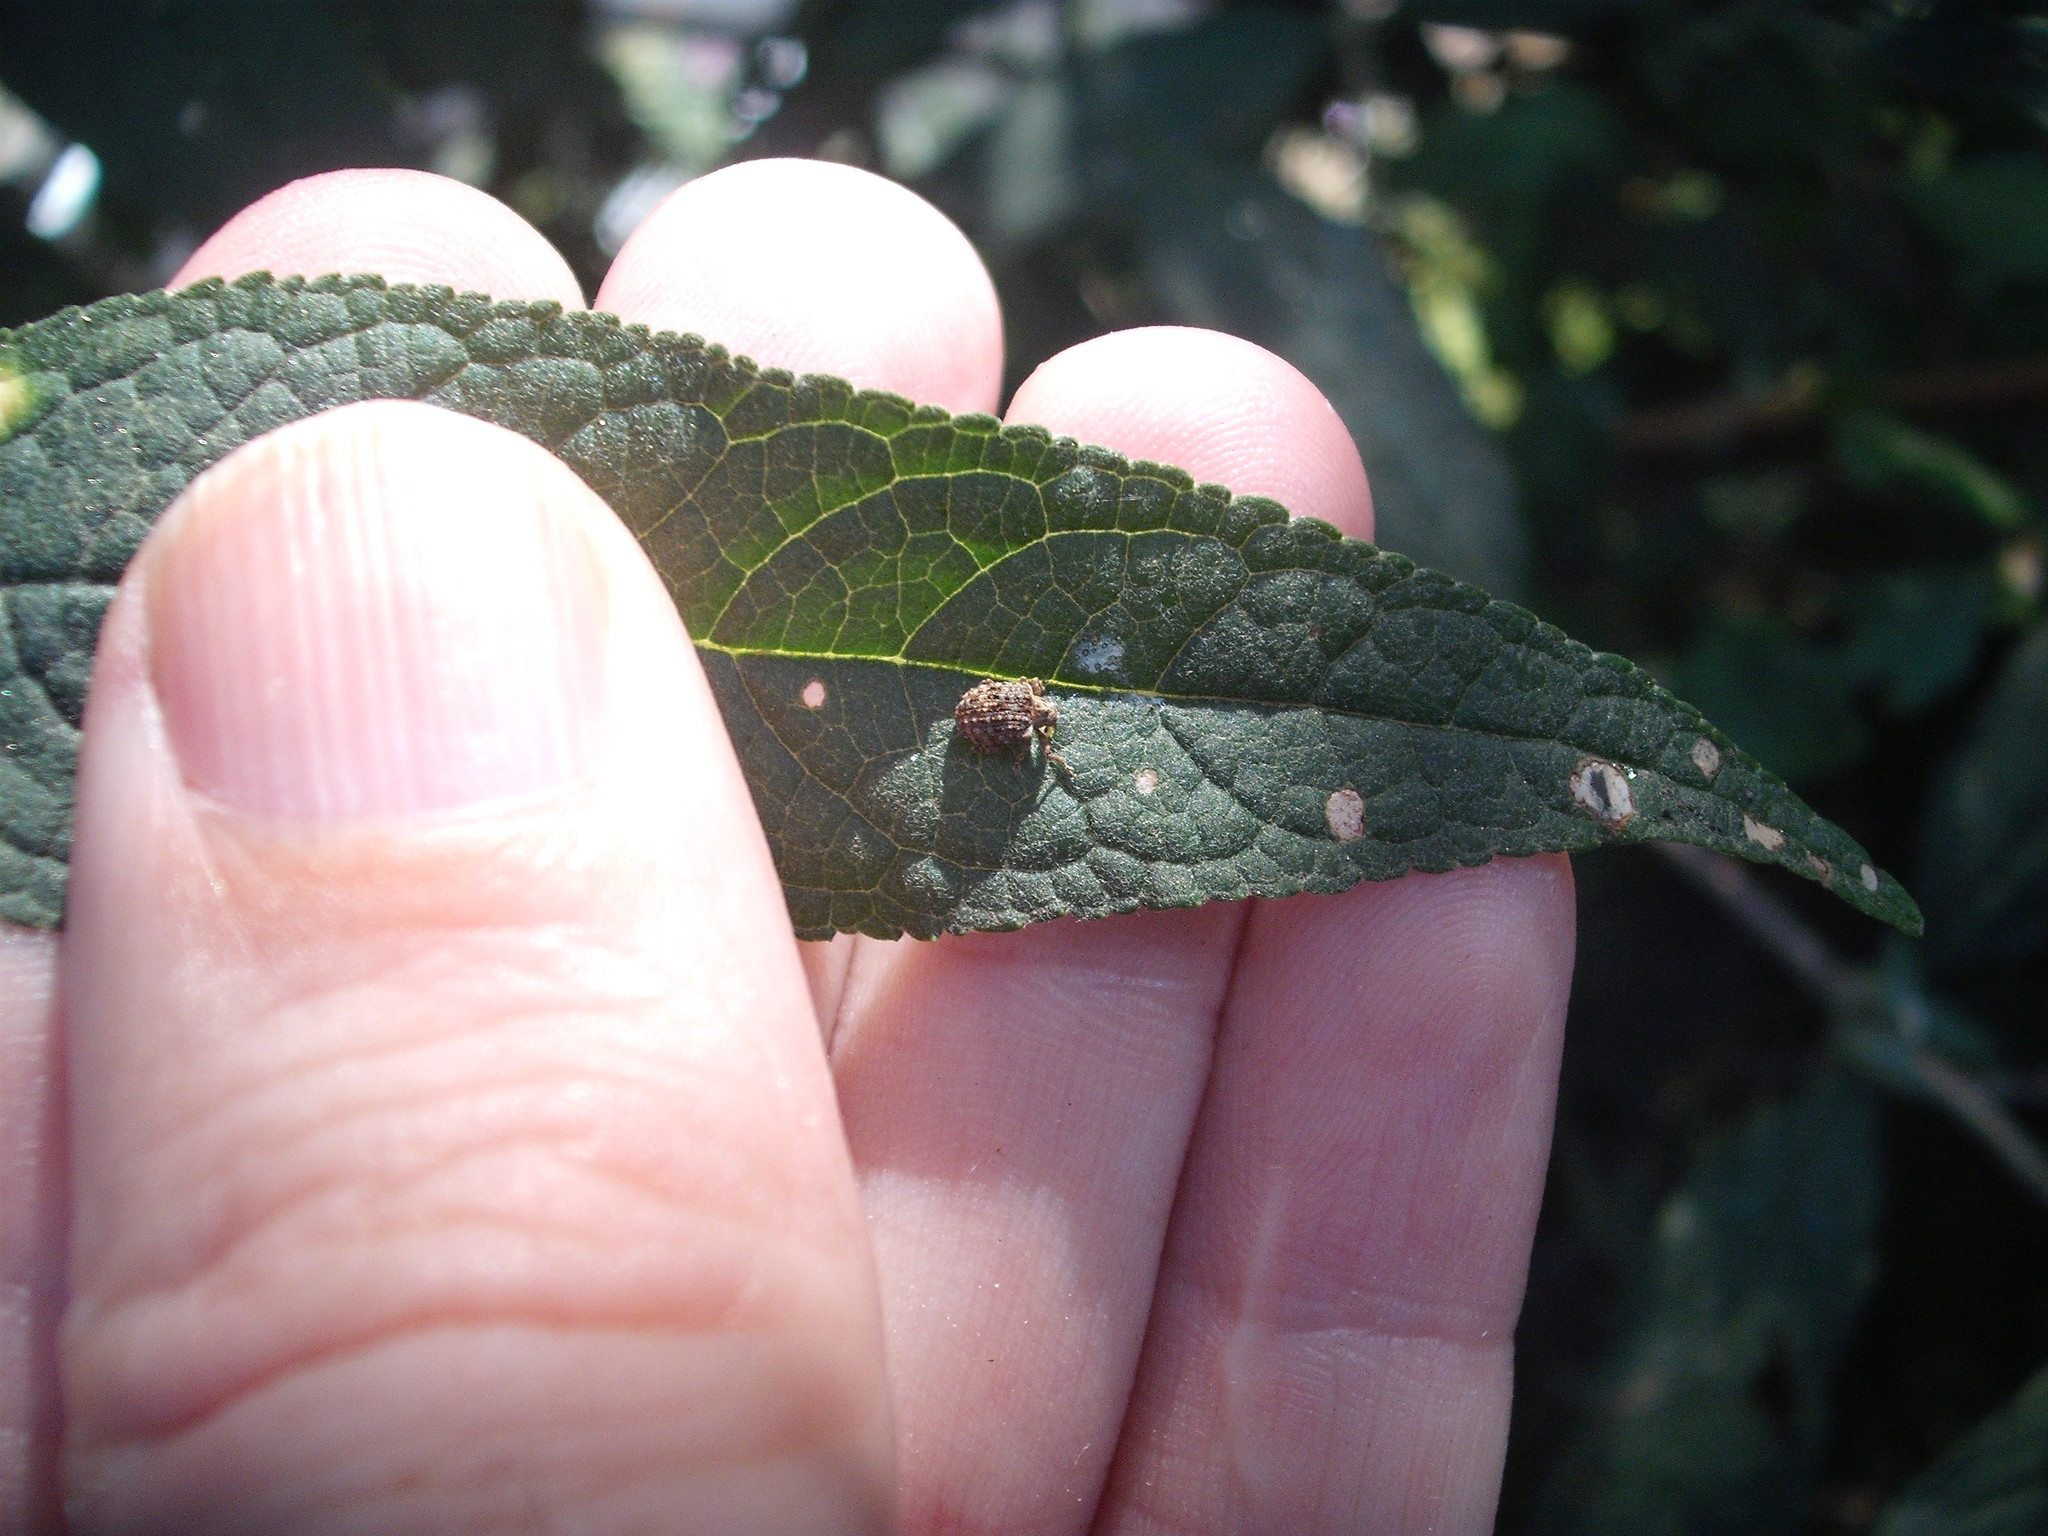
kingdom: Animalia
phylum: Arthropoda
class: Insecta
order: Coleoptera
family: Curculionidae
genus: Cleopus
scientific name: Cleopus japonicus
